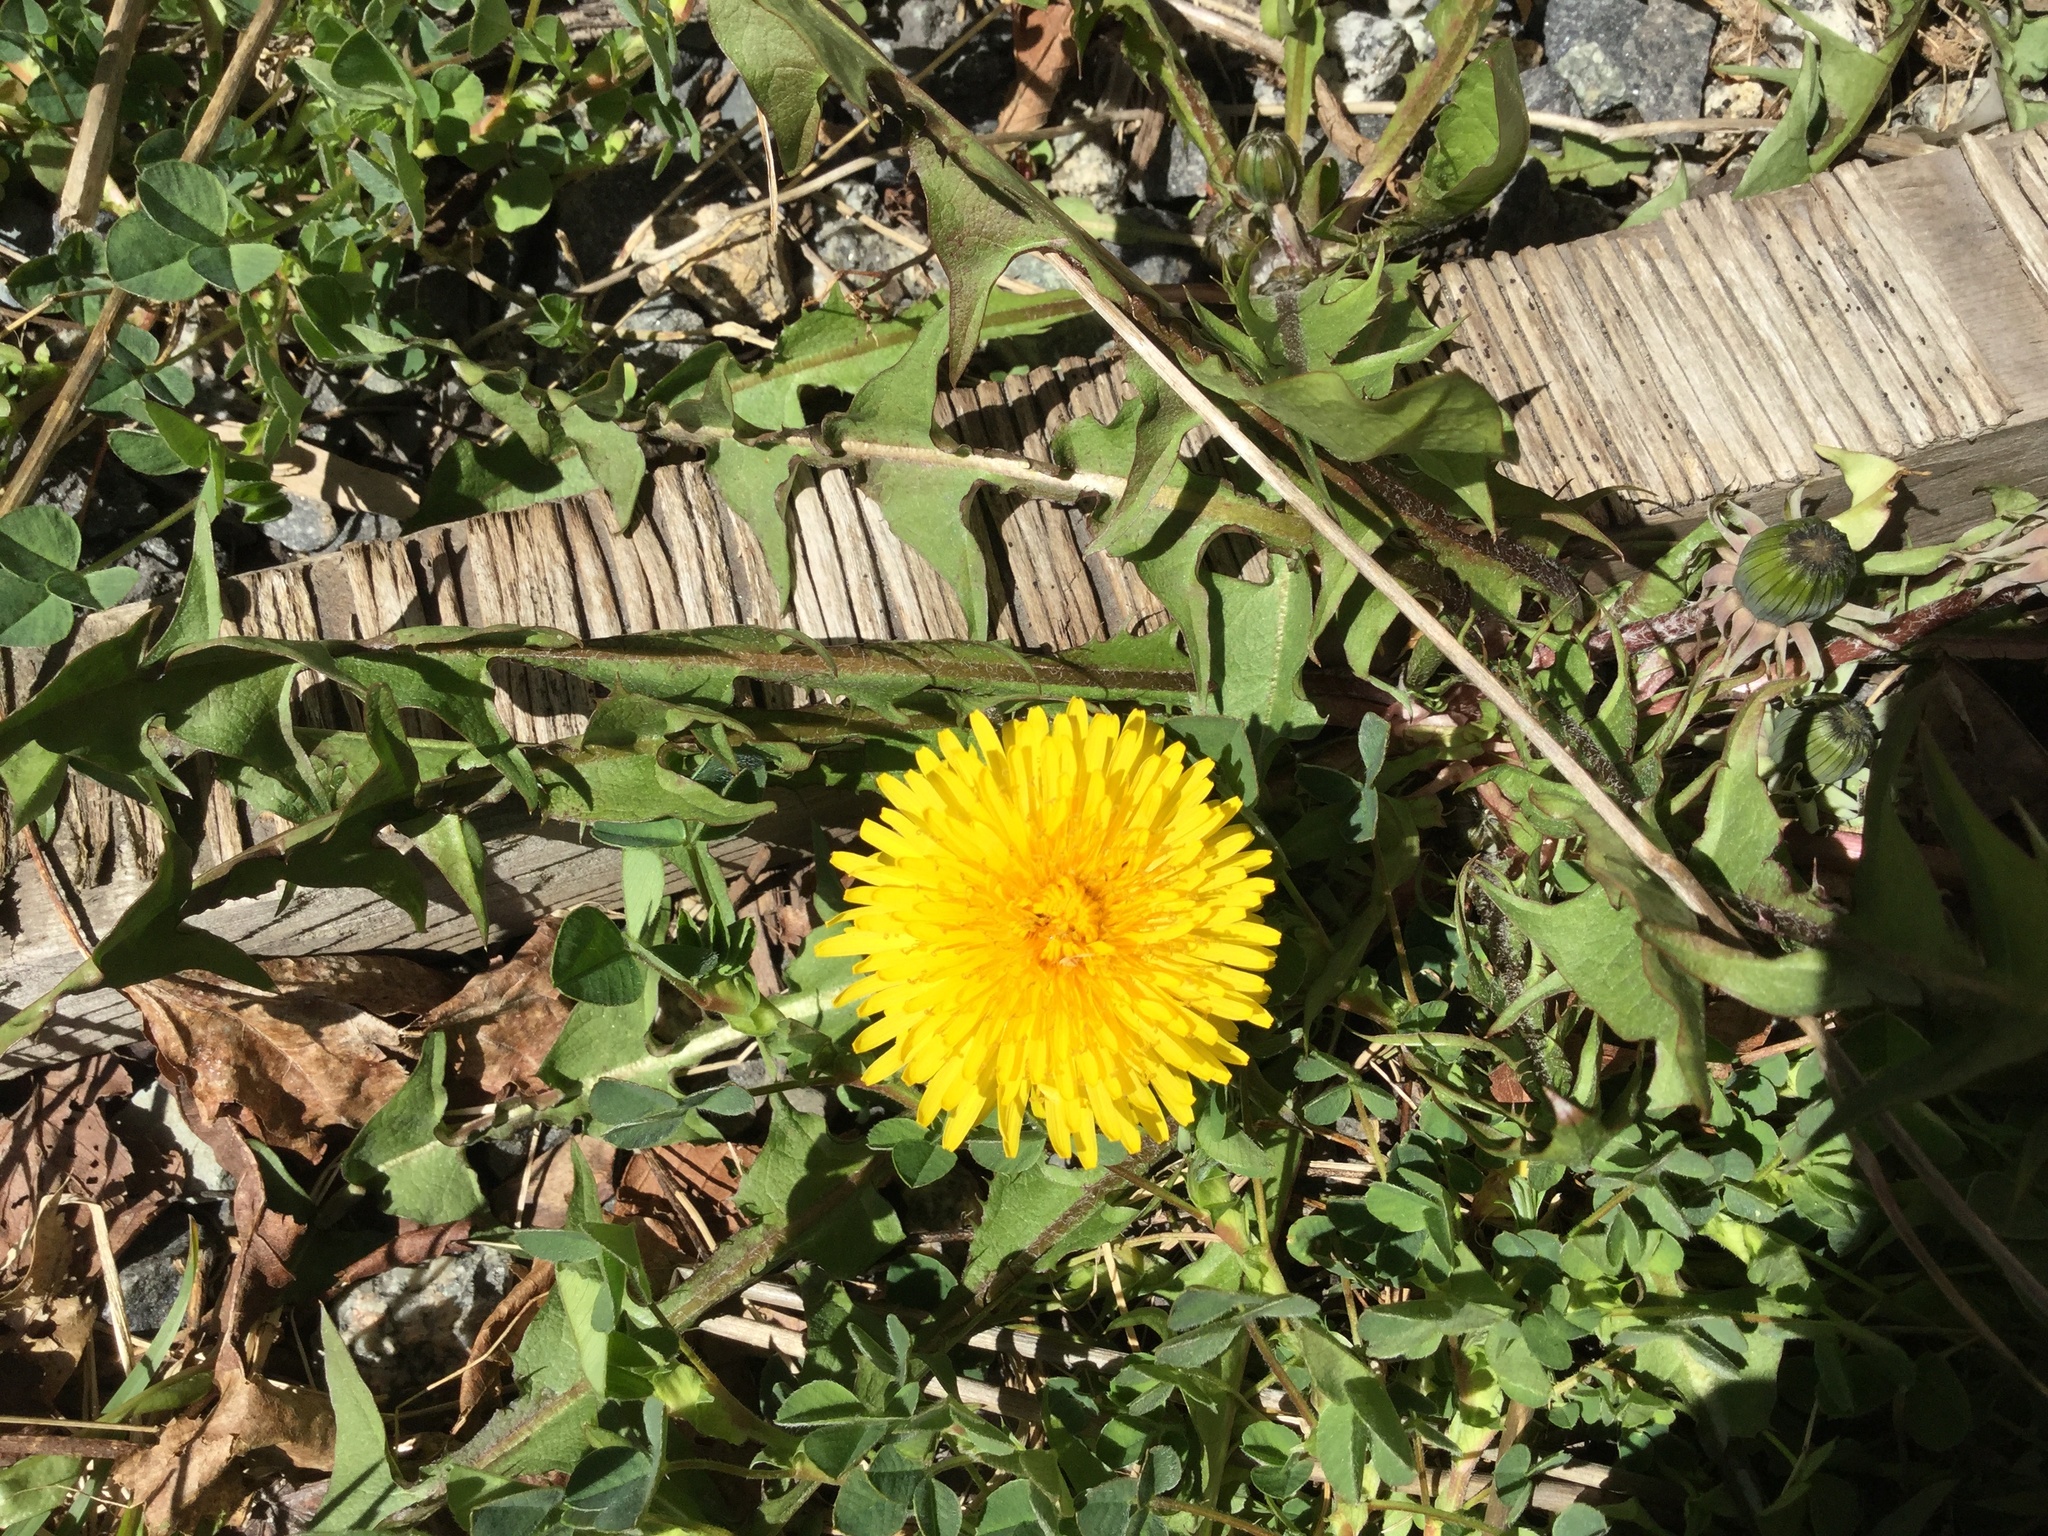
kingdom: Plantae
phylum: Tracheophyta
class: Magnoliopsida
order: Asterales
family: Asteraceae
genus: Taraxacum
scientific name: Taraxacum officinale
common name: Common dandelion
